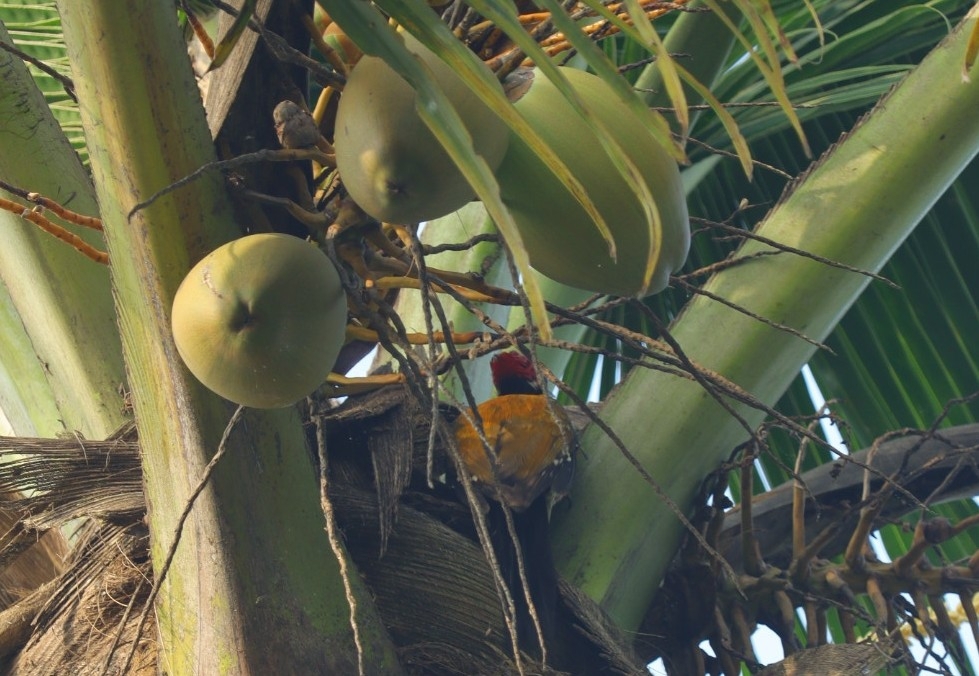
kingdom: Animalia
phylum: Chordata
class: Aves
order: Piciformes
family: Picidae
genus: Dinopium
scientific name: Dinopium benghalense
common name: Black-rumped flameback
